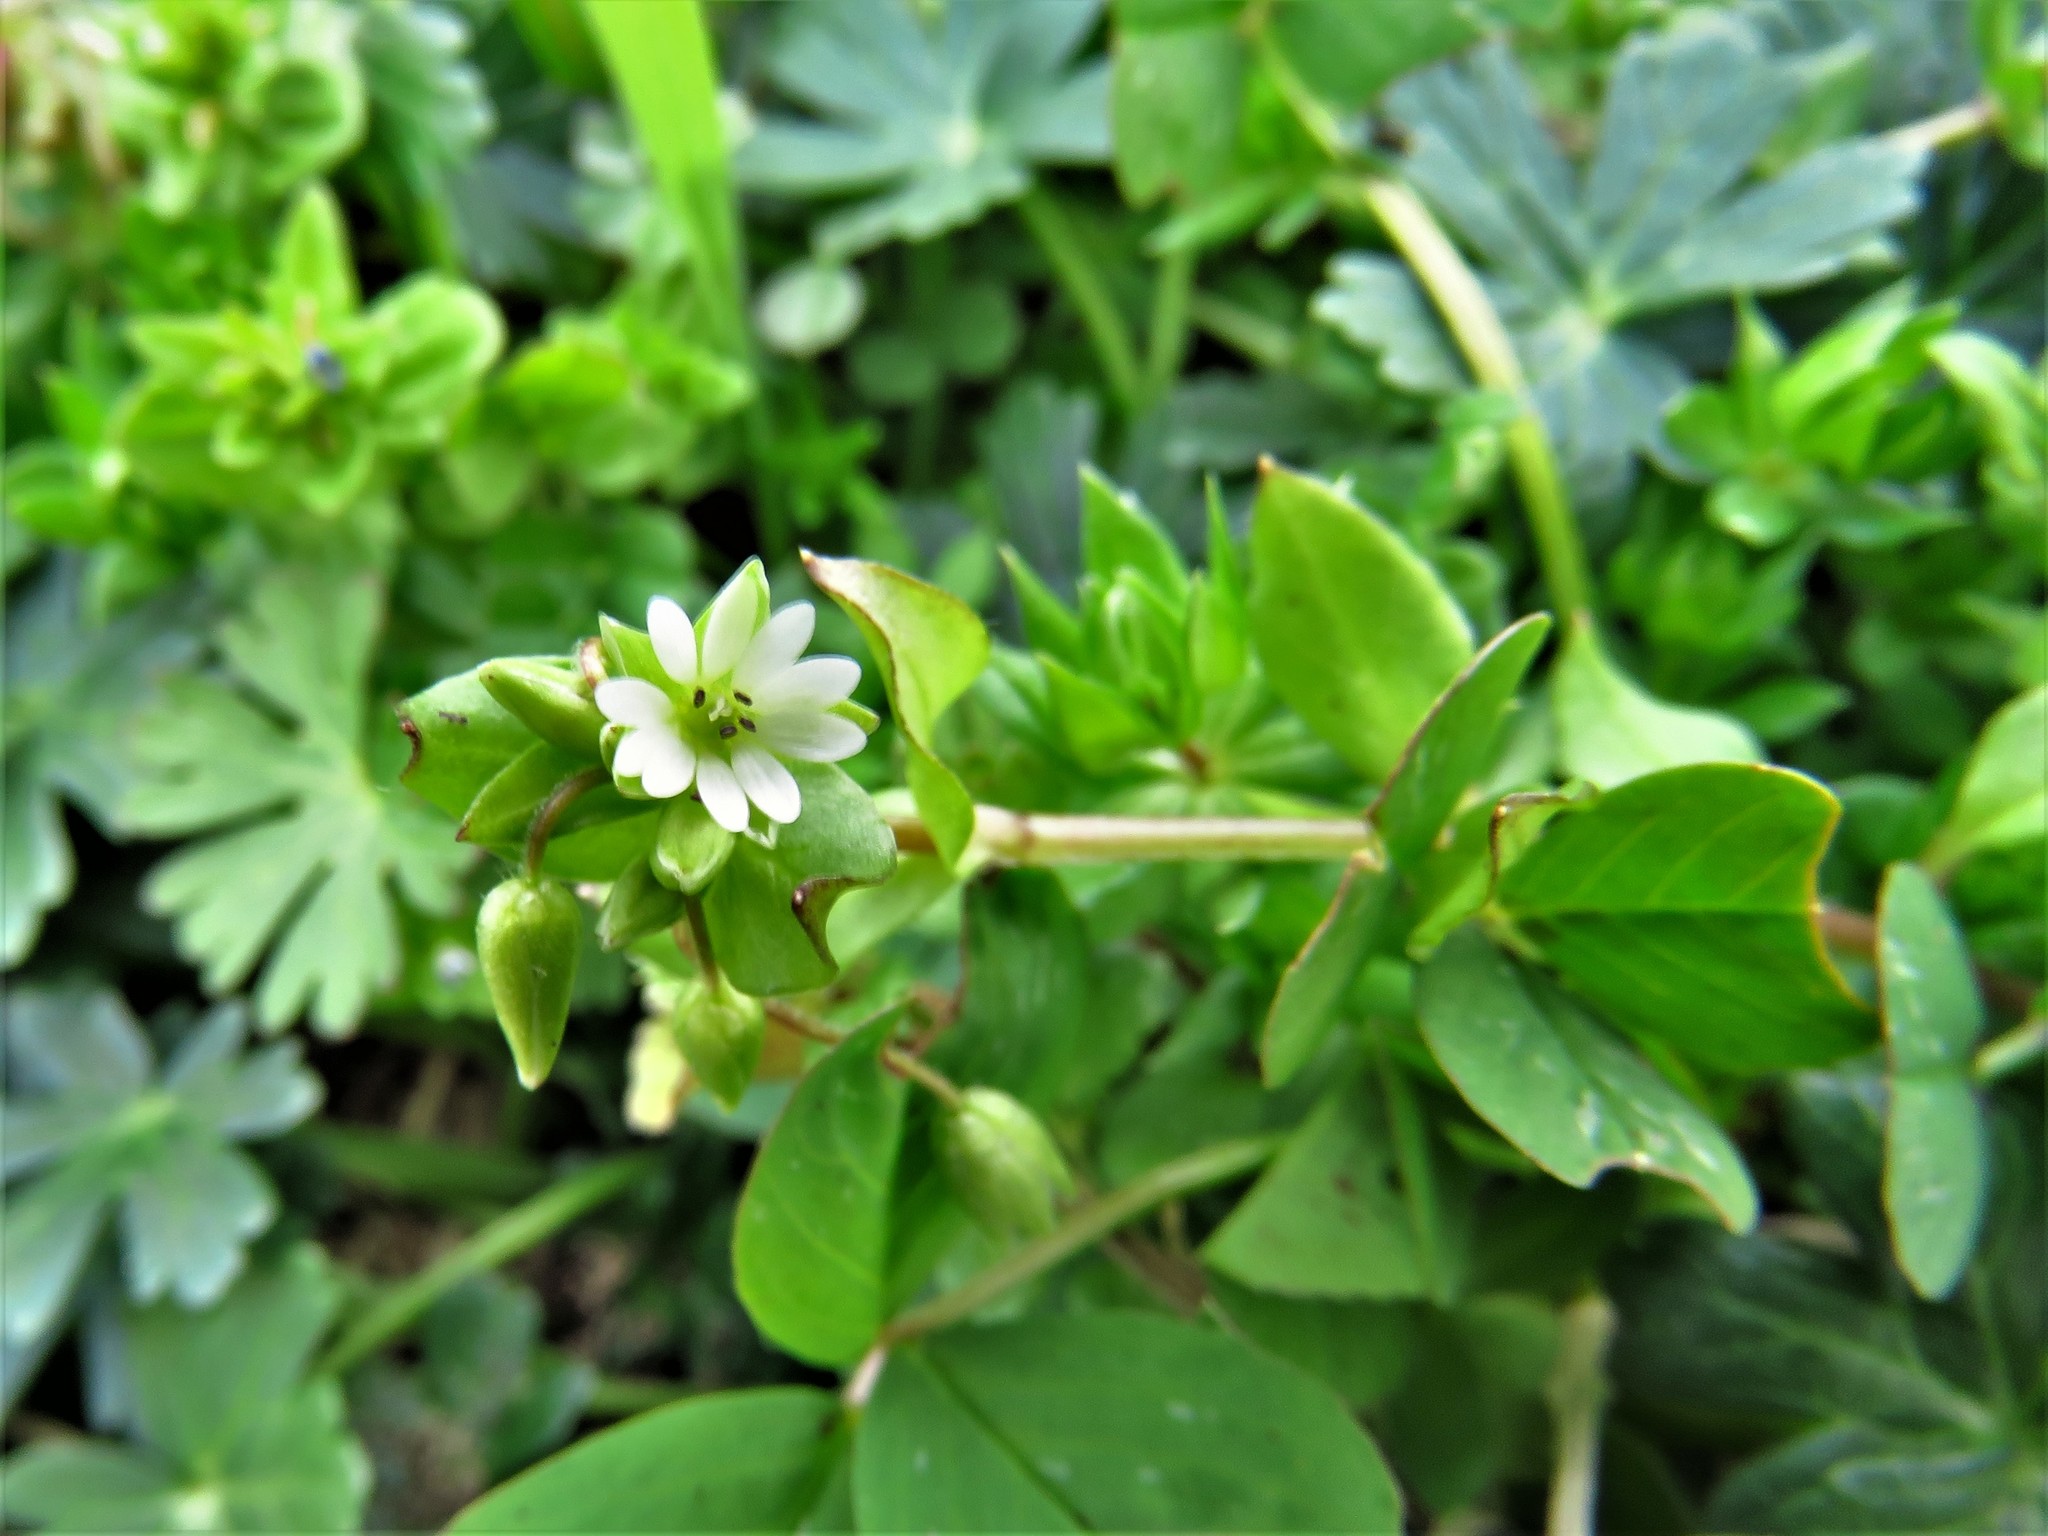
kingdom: Plantae
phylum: Tracheophyta
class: Magnoliopsida
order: Caryophyllales
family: Caryophyllaceae
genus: Stellaria
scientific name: Stellaria media
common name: Common chickweed
